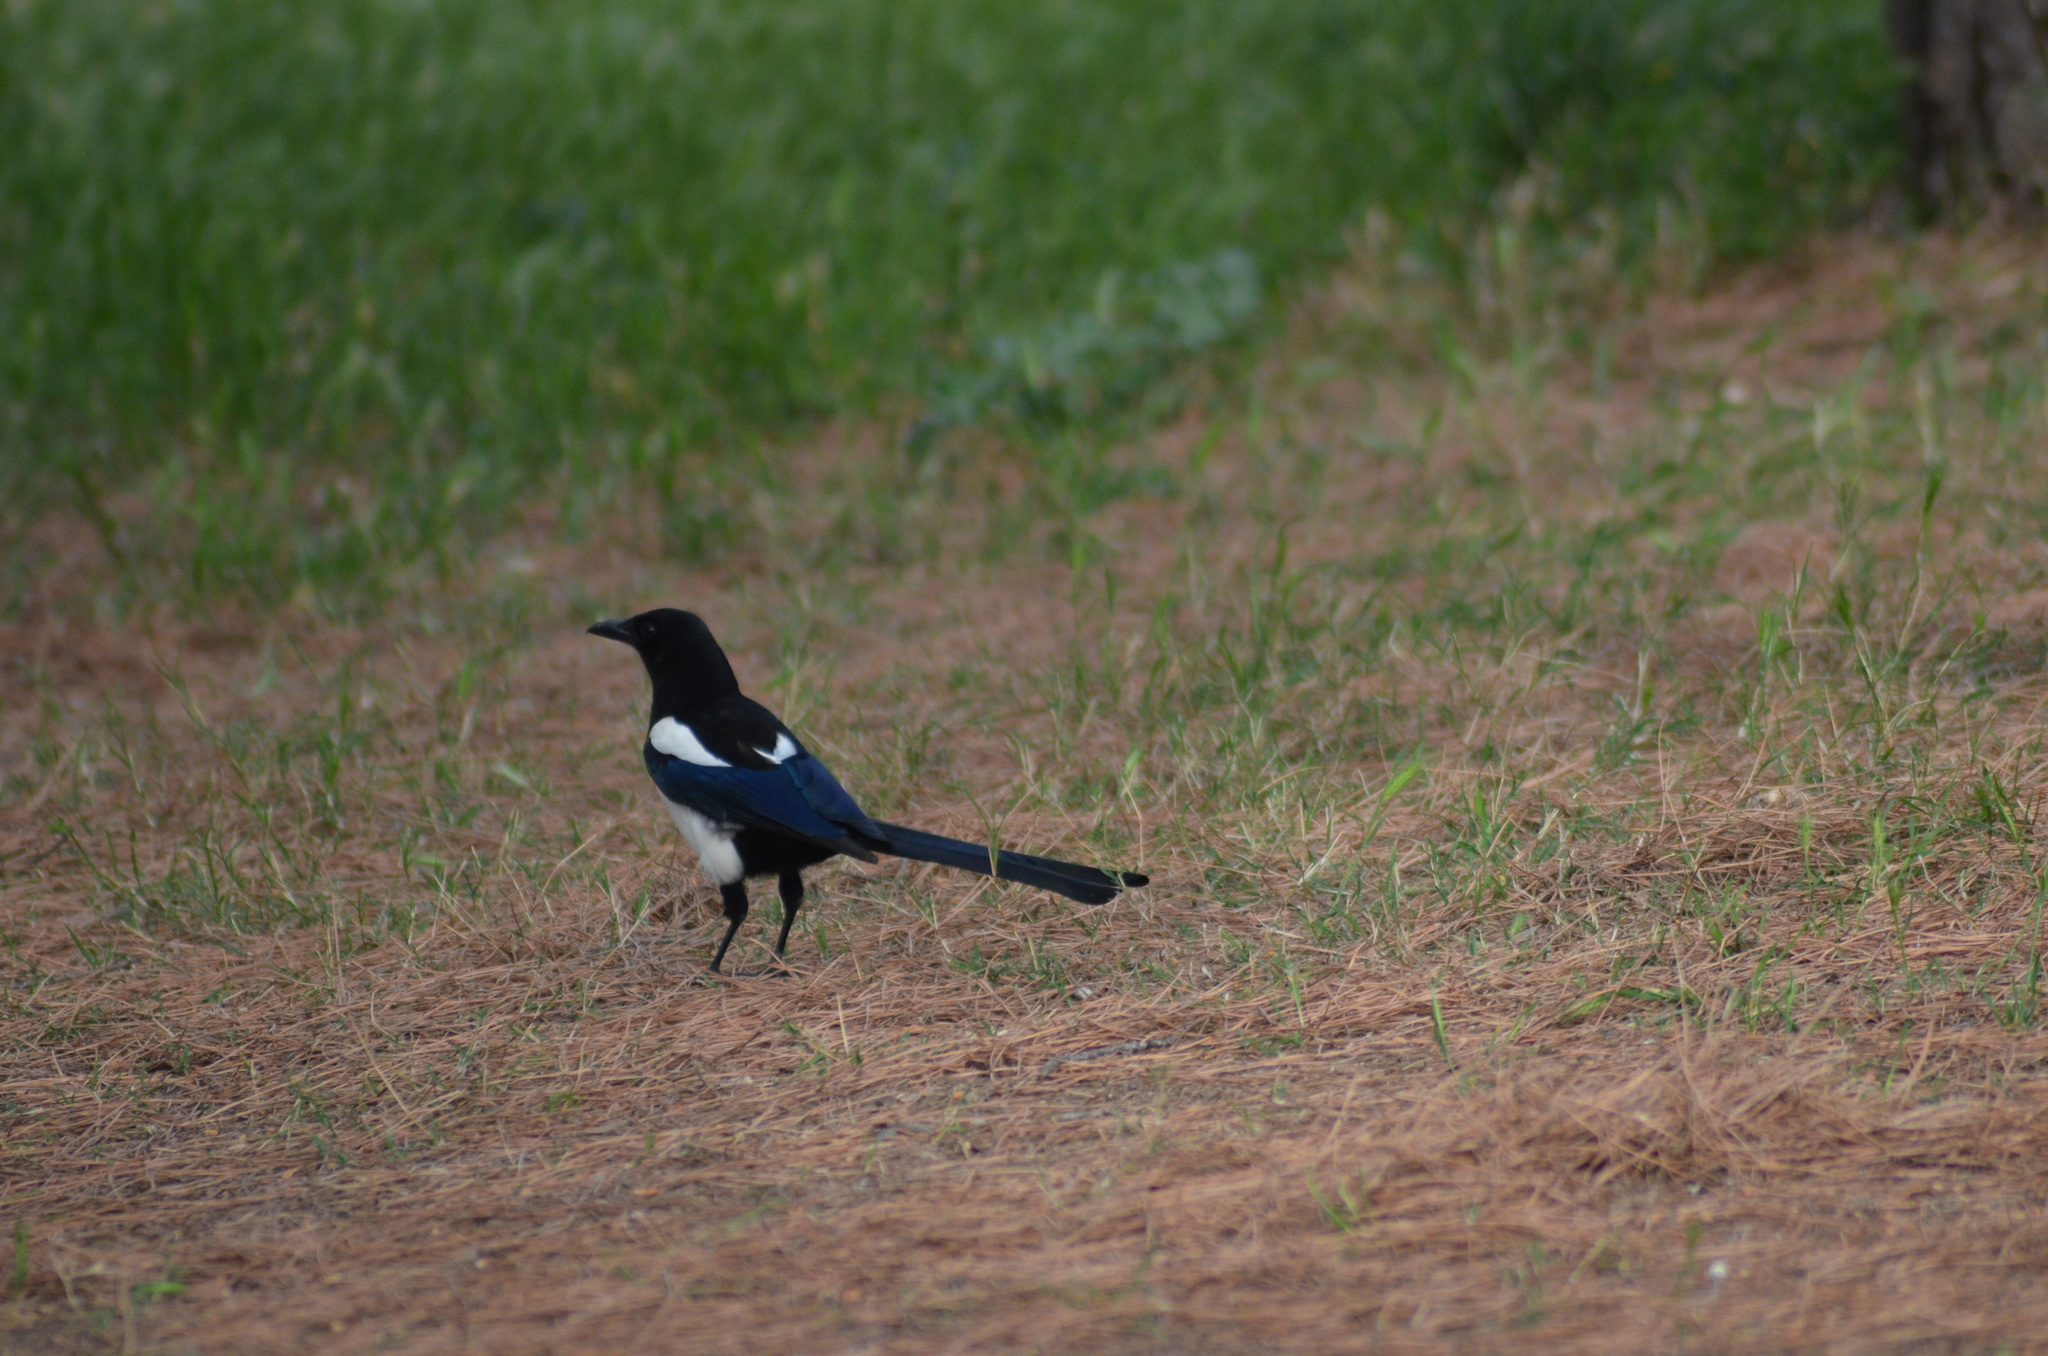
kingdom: Animalia
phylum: Chordata
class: Aves
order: Passeriformes
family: Corvidae
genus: Pica
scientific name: Pica pica
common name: Eurasian magpie
